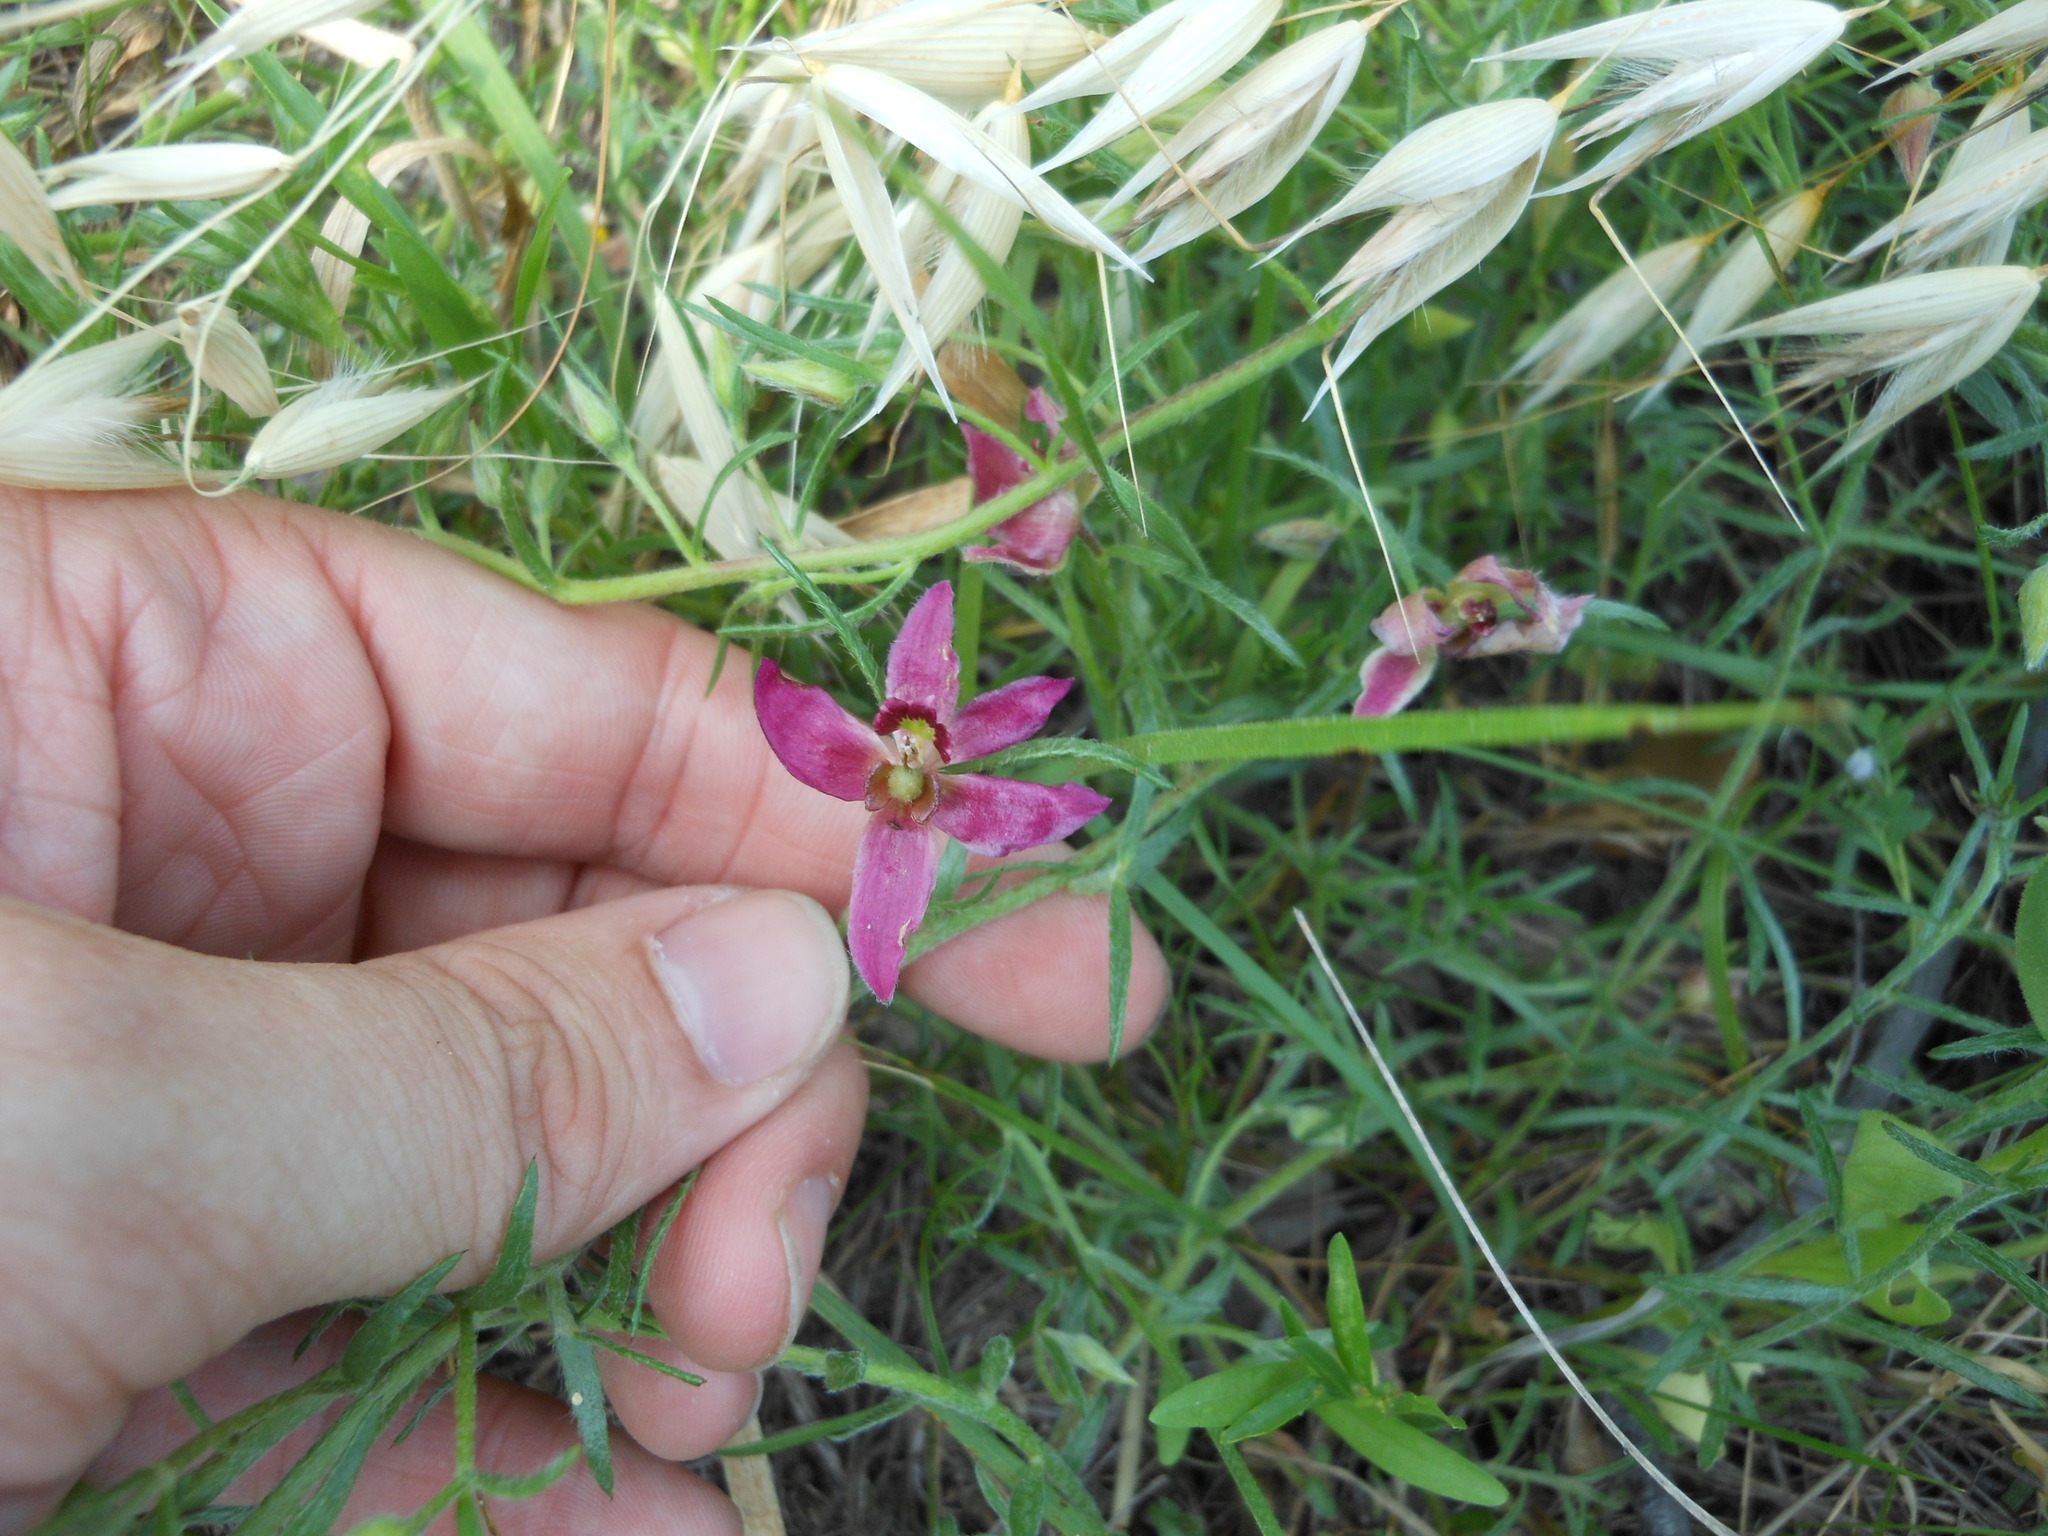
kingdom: Plantae
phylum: Tracheophyta
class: Magnoliopsida
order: Zygophyllales
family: Krameriaceae
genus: Krameria
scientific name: Krameria lanceolata
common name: Ratany
